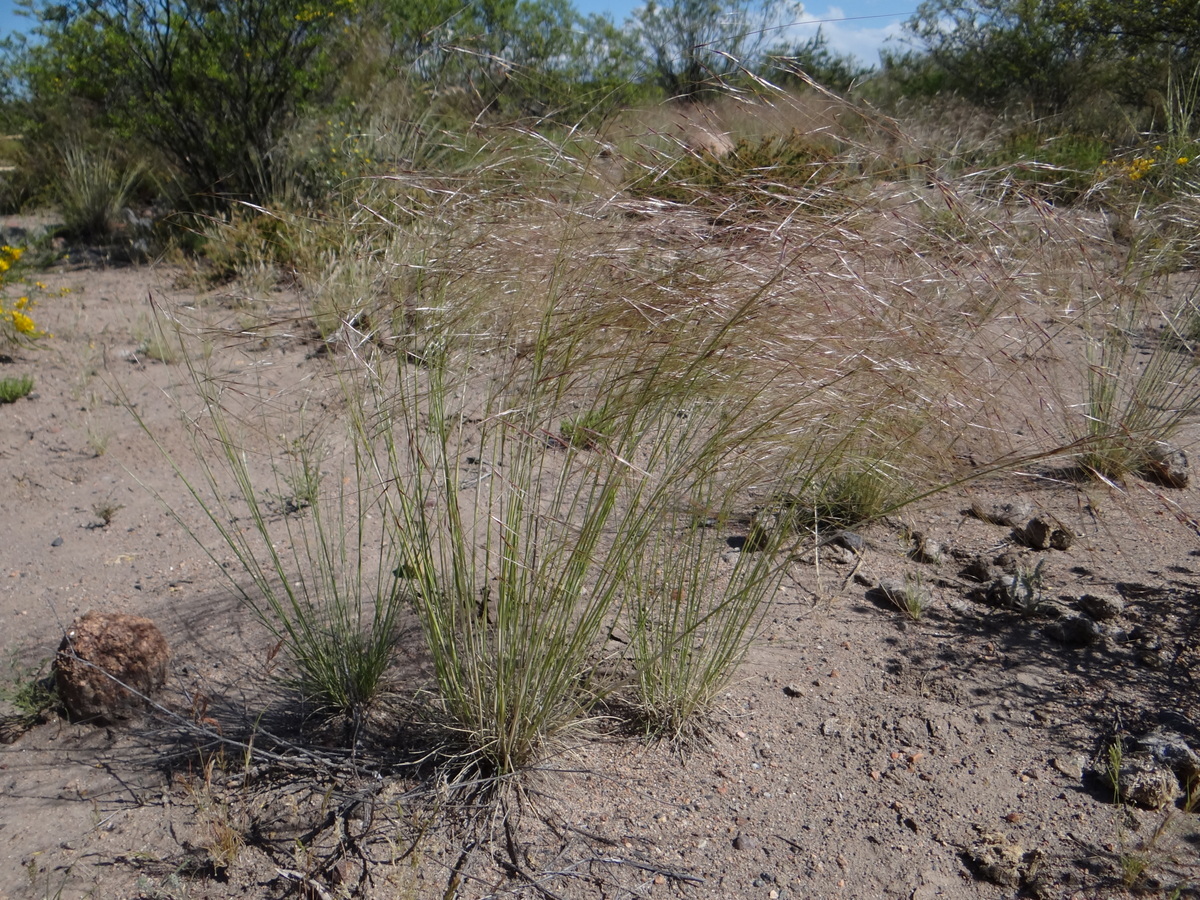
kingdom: Plantae
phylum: Tracheophyta
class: Liliopsida
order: Poales
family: Poaceae
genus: Piptochaetium
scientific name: Piptochaetium napostaense
